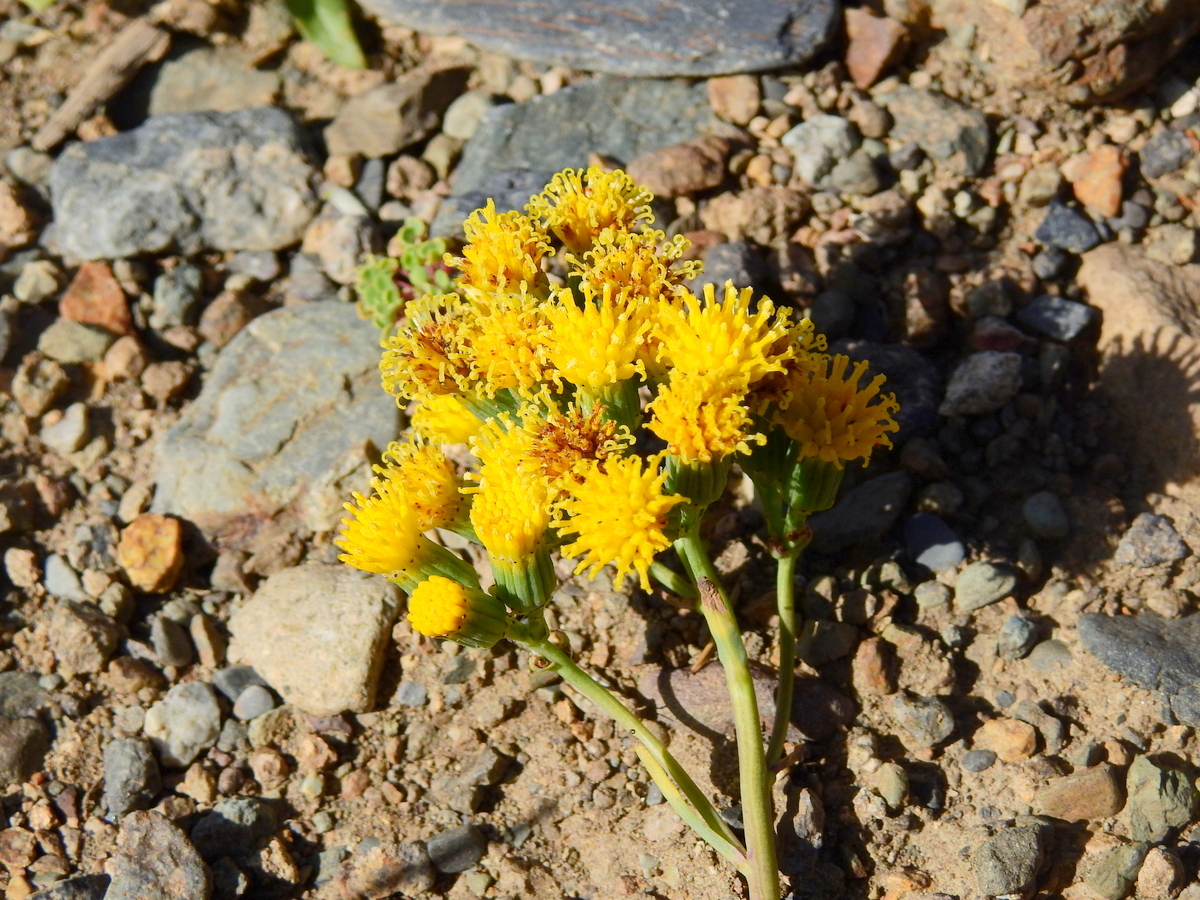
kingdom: Plantae
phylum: Tracheophyta
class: Magnoliopsida
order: Asterales
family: Asteraceae
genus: Senecio
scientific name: Senecio subumbellatus
